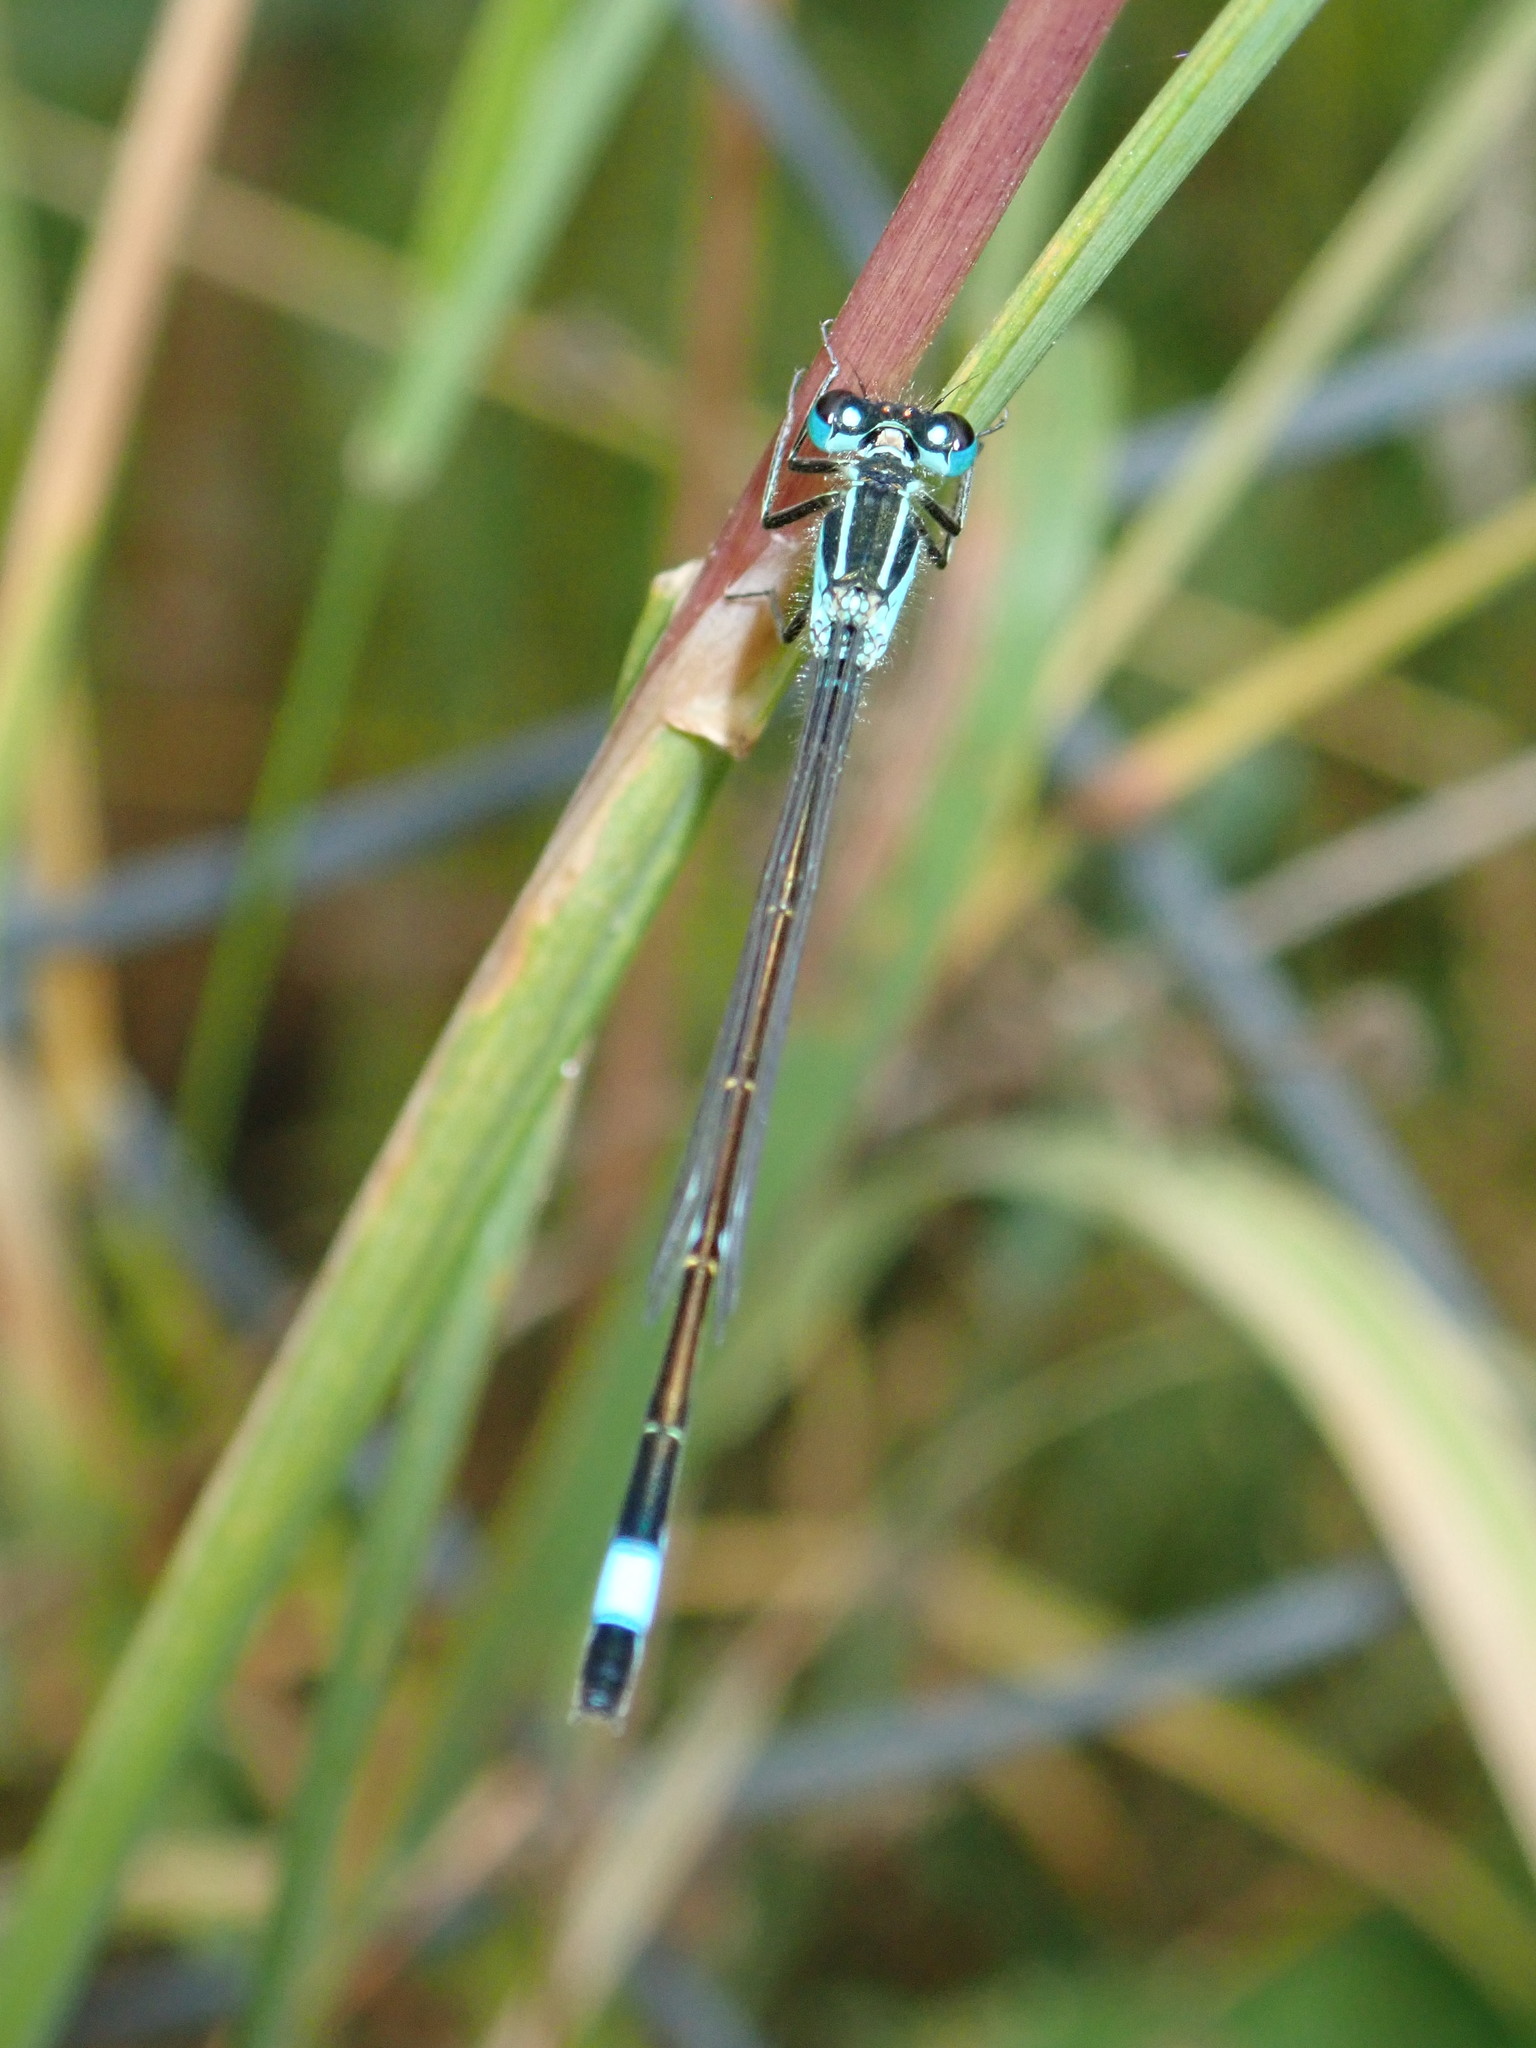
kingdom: Animalia
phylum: Arthropoda
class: Insecta
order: Odonata
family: Coenagrionidae
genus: Ischnura
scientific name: Ischnura elegans
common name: Blue-tailed damselfly
